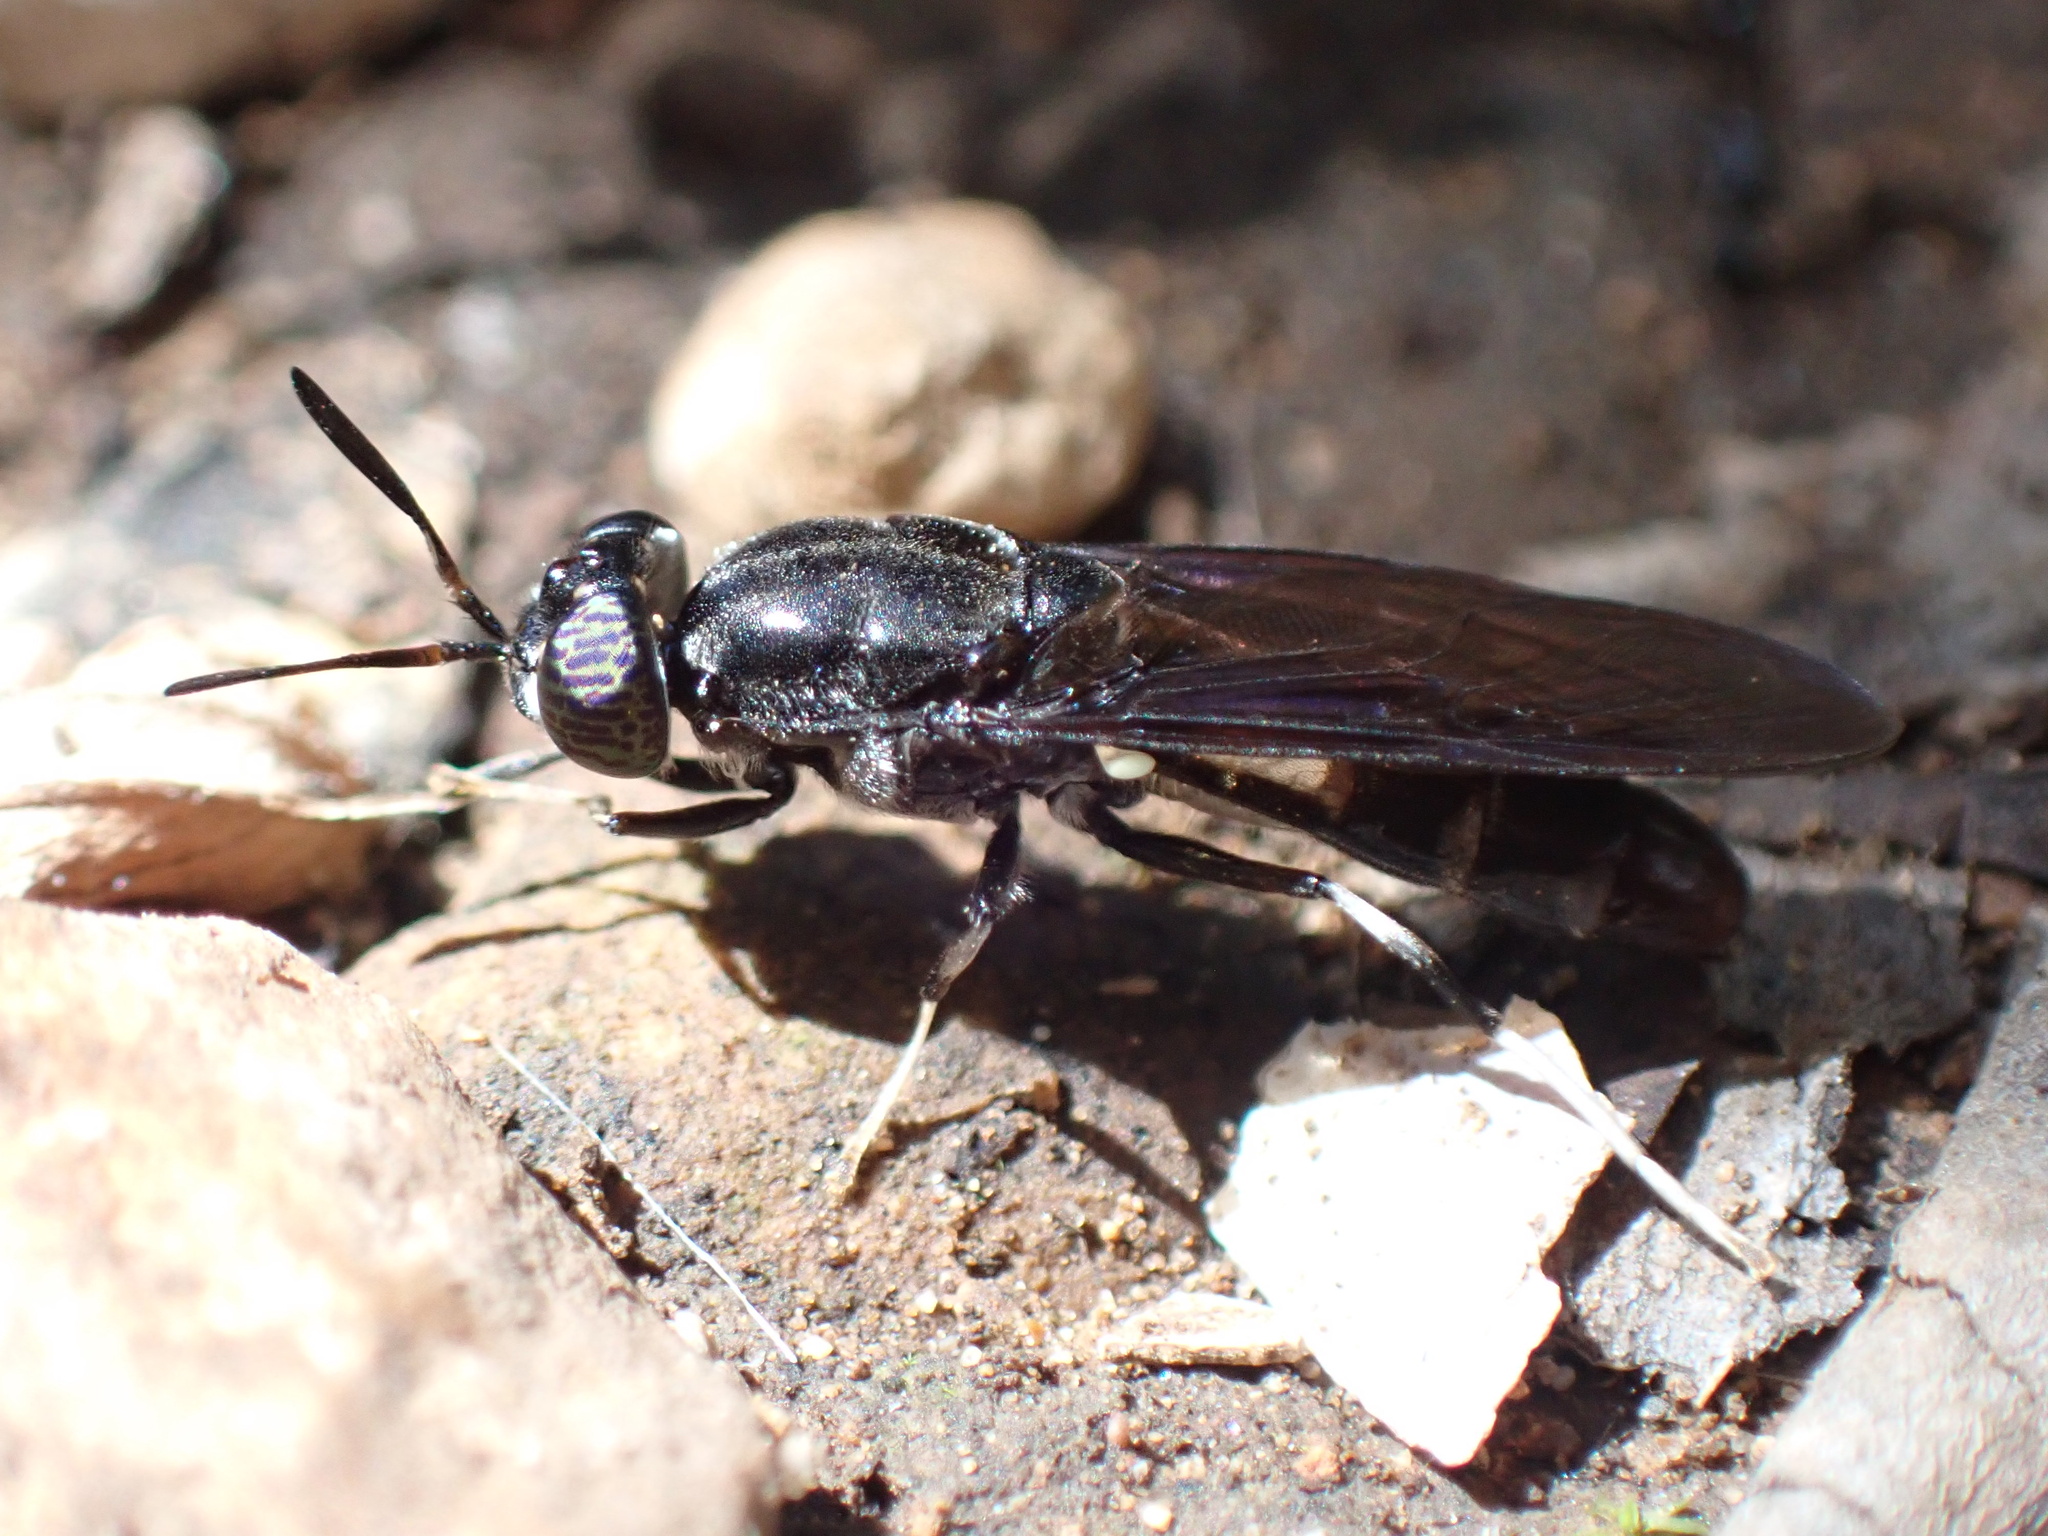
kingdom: Animalia
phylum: Arthropoda
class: Insecta
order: Diptera
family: Stratiomyidae
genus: Hermetia
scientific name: Hermetia illucens
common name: Black soldier fly
